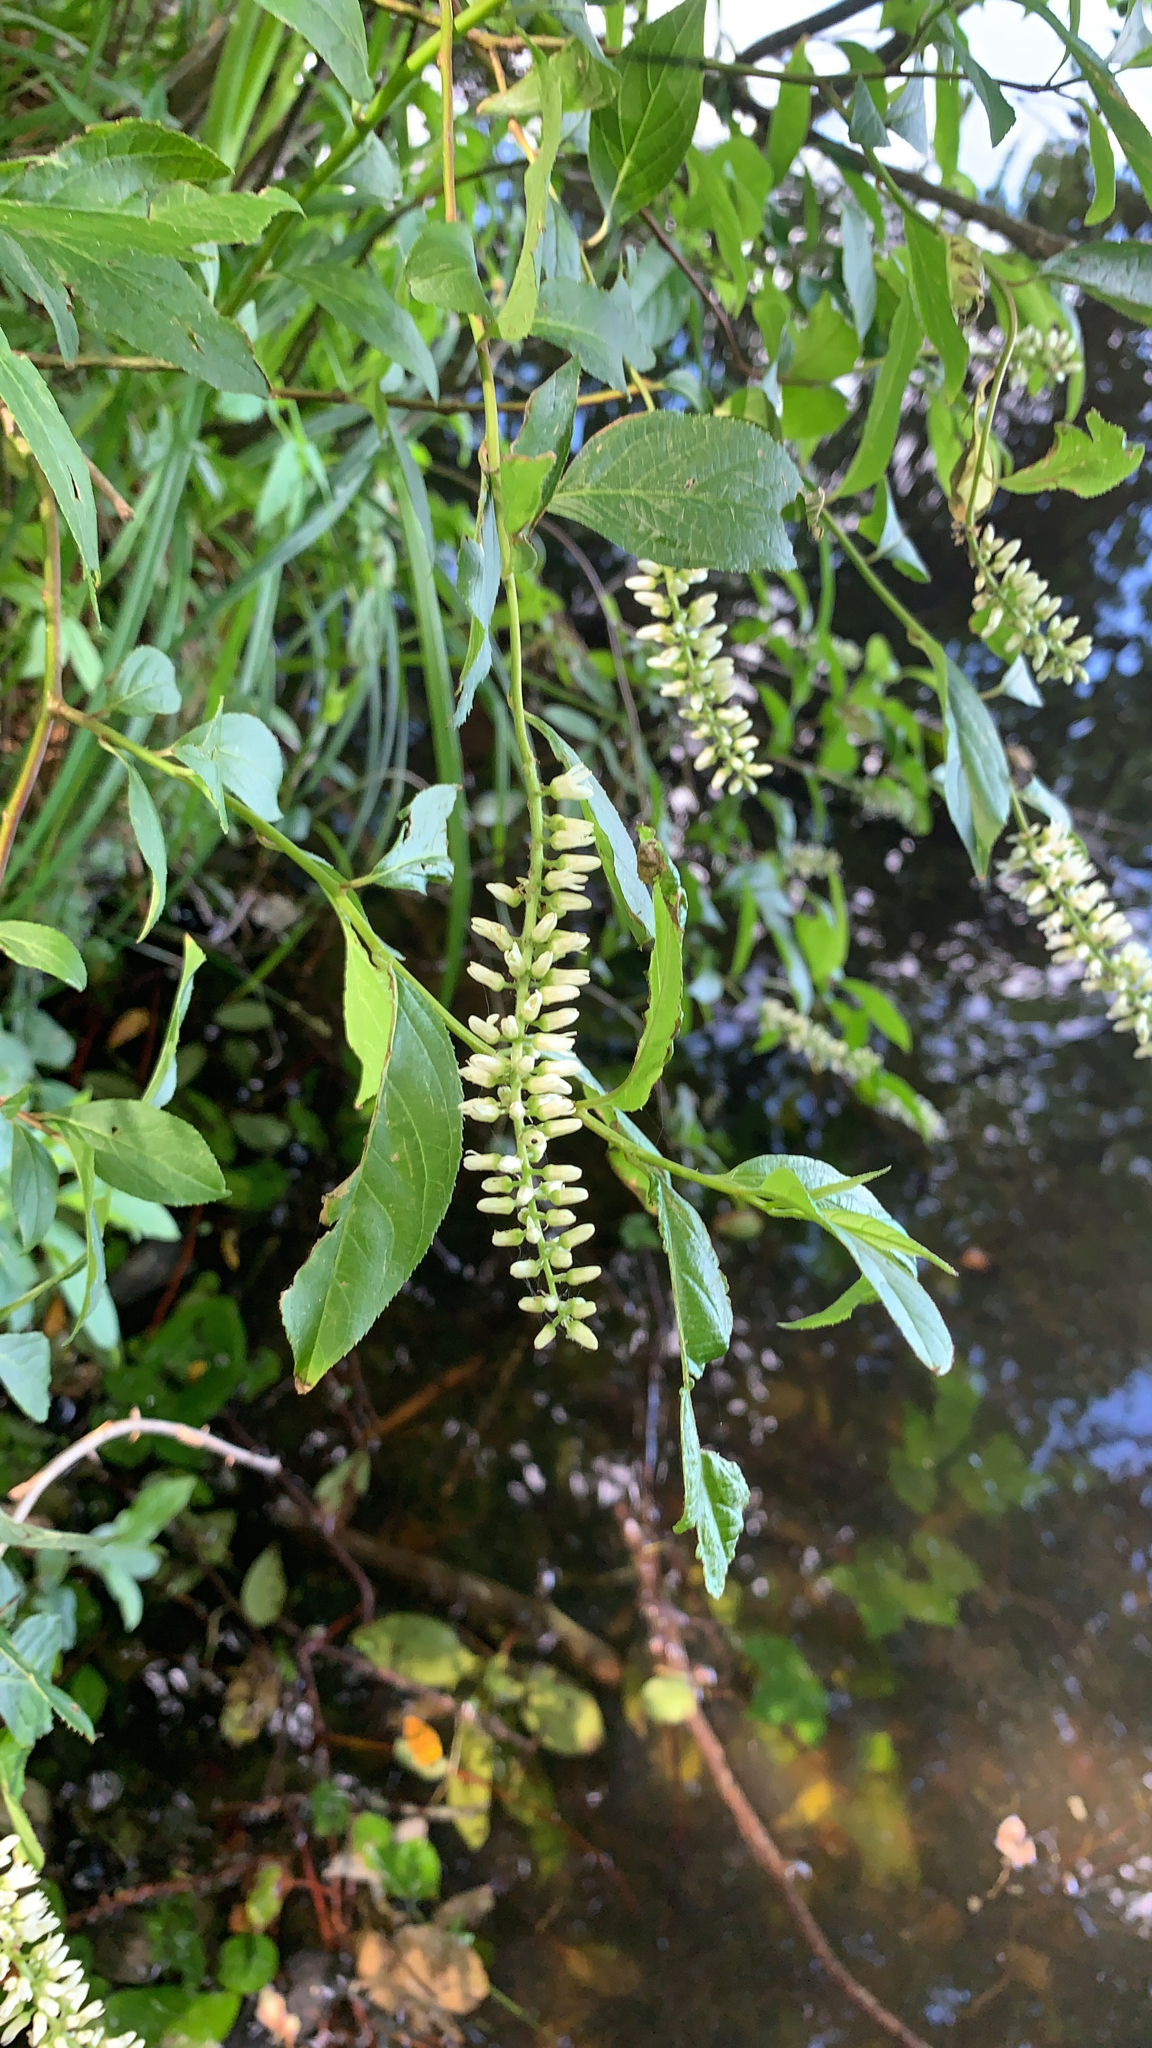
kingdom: Plantae
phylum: Tracheophyta
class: Magnoliopsida
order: Saxifragales
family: Iteaceae
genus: Itea
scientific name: Itea virginica
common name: Sweetspire
